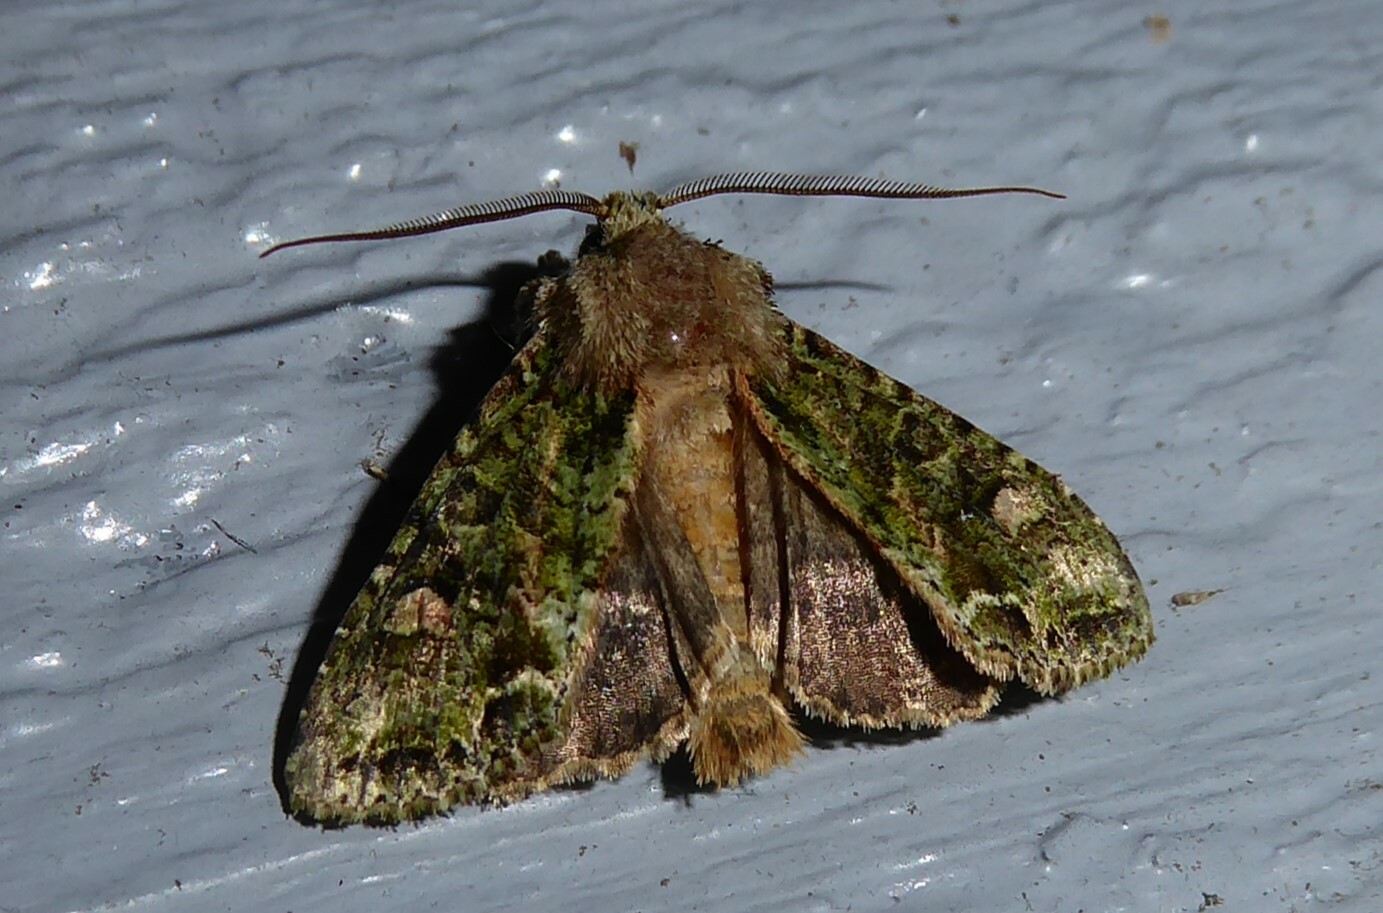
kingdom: Animalia
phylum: Arthropoda
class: Insecta
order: Lepidoptera
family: Noctuidae
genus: Ichneutica
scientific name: Ichneutica
